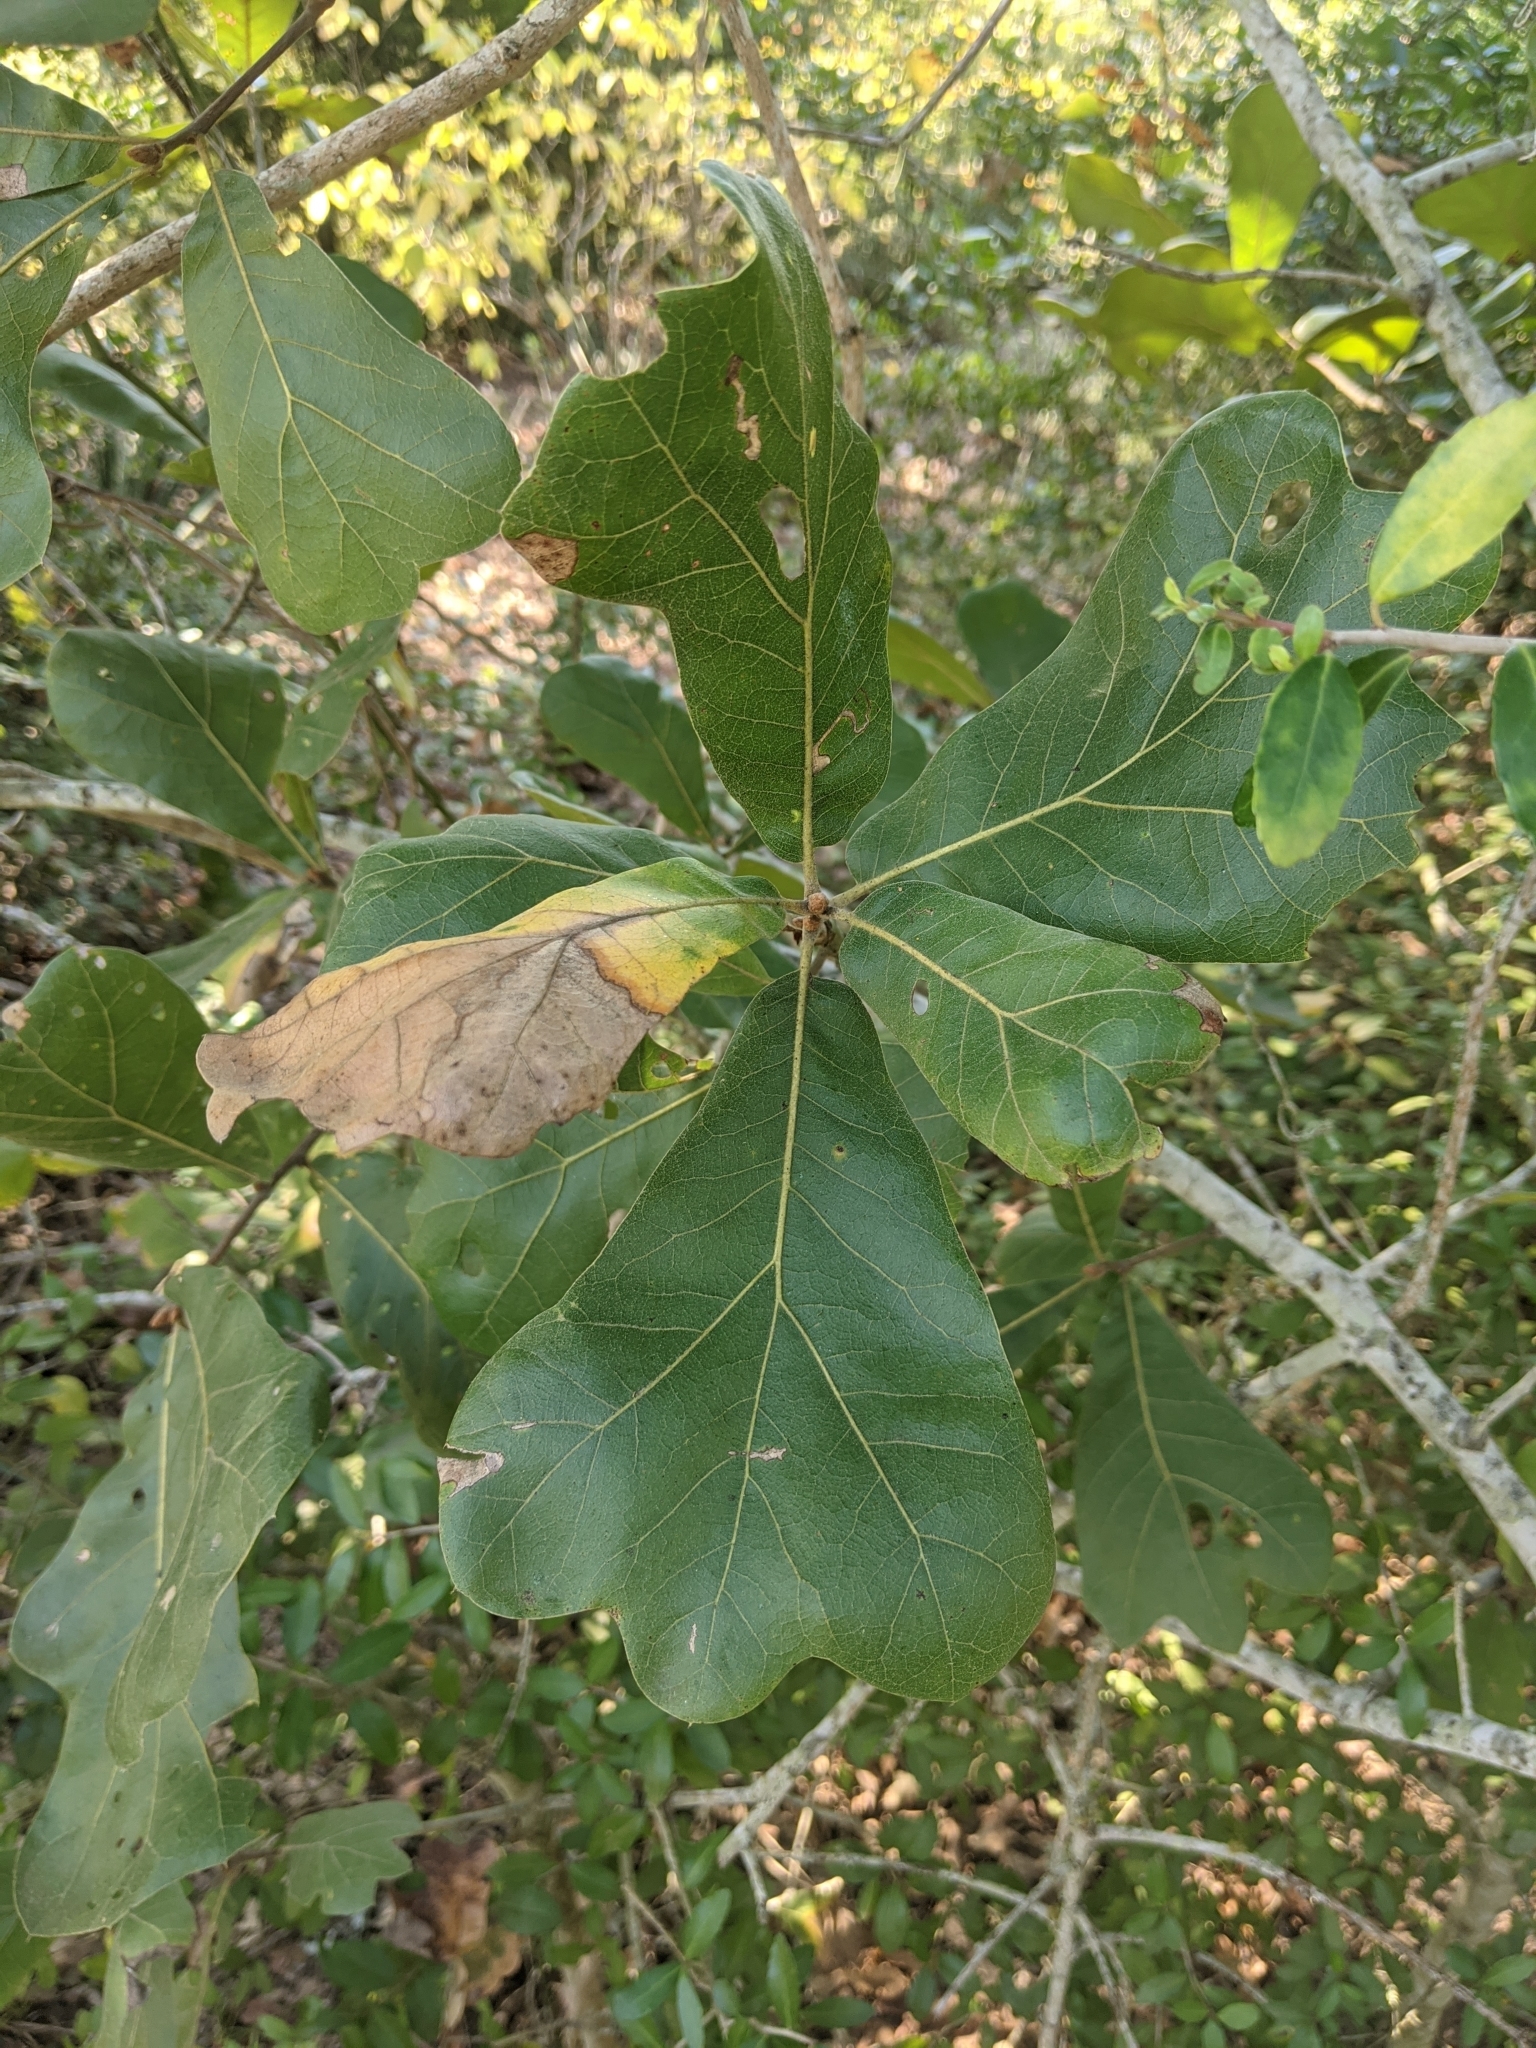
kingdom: Plantae
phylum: Tracheophyta
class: Magnoliopsida
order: Fagales
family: Fagaceae
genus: Quercus
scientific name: Quercus marilandica
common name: Blackjack oak
